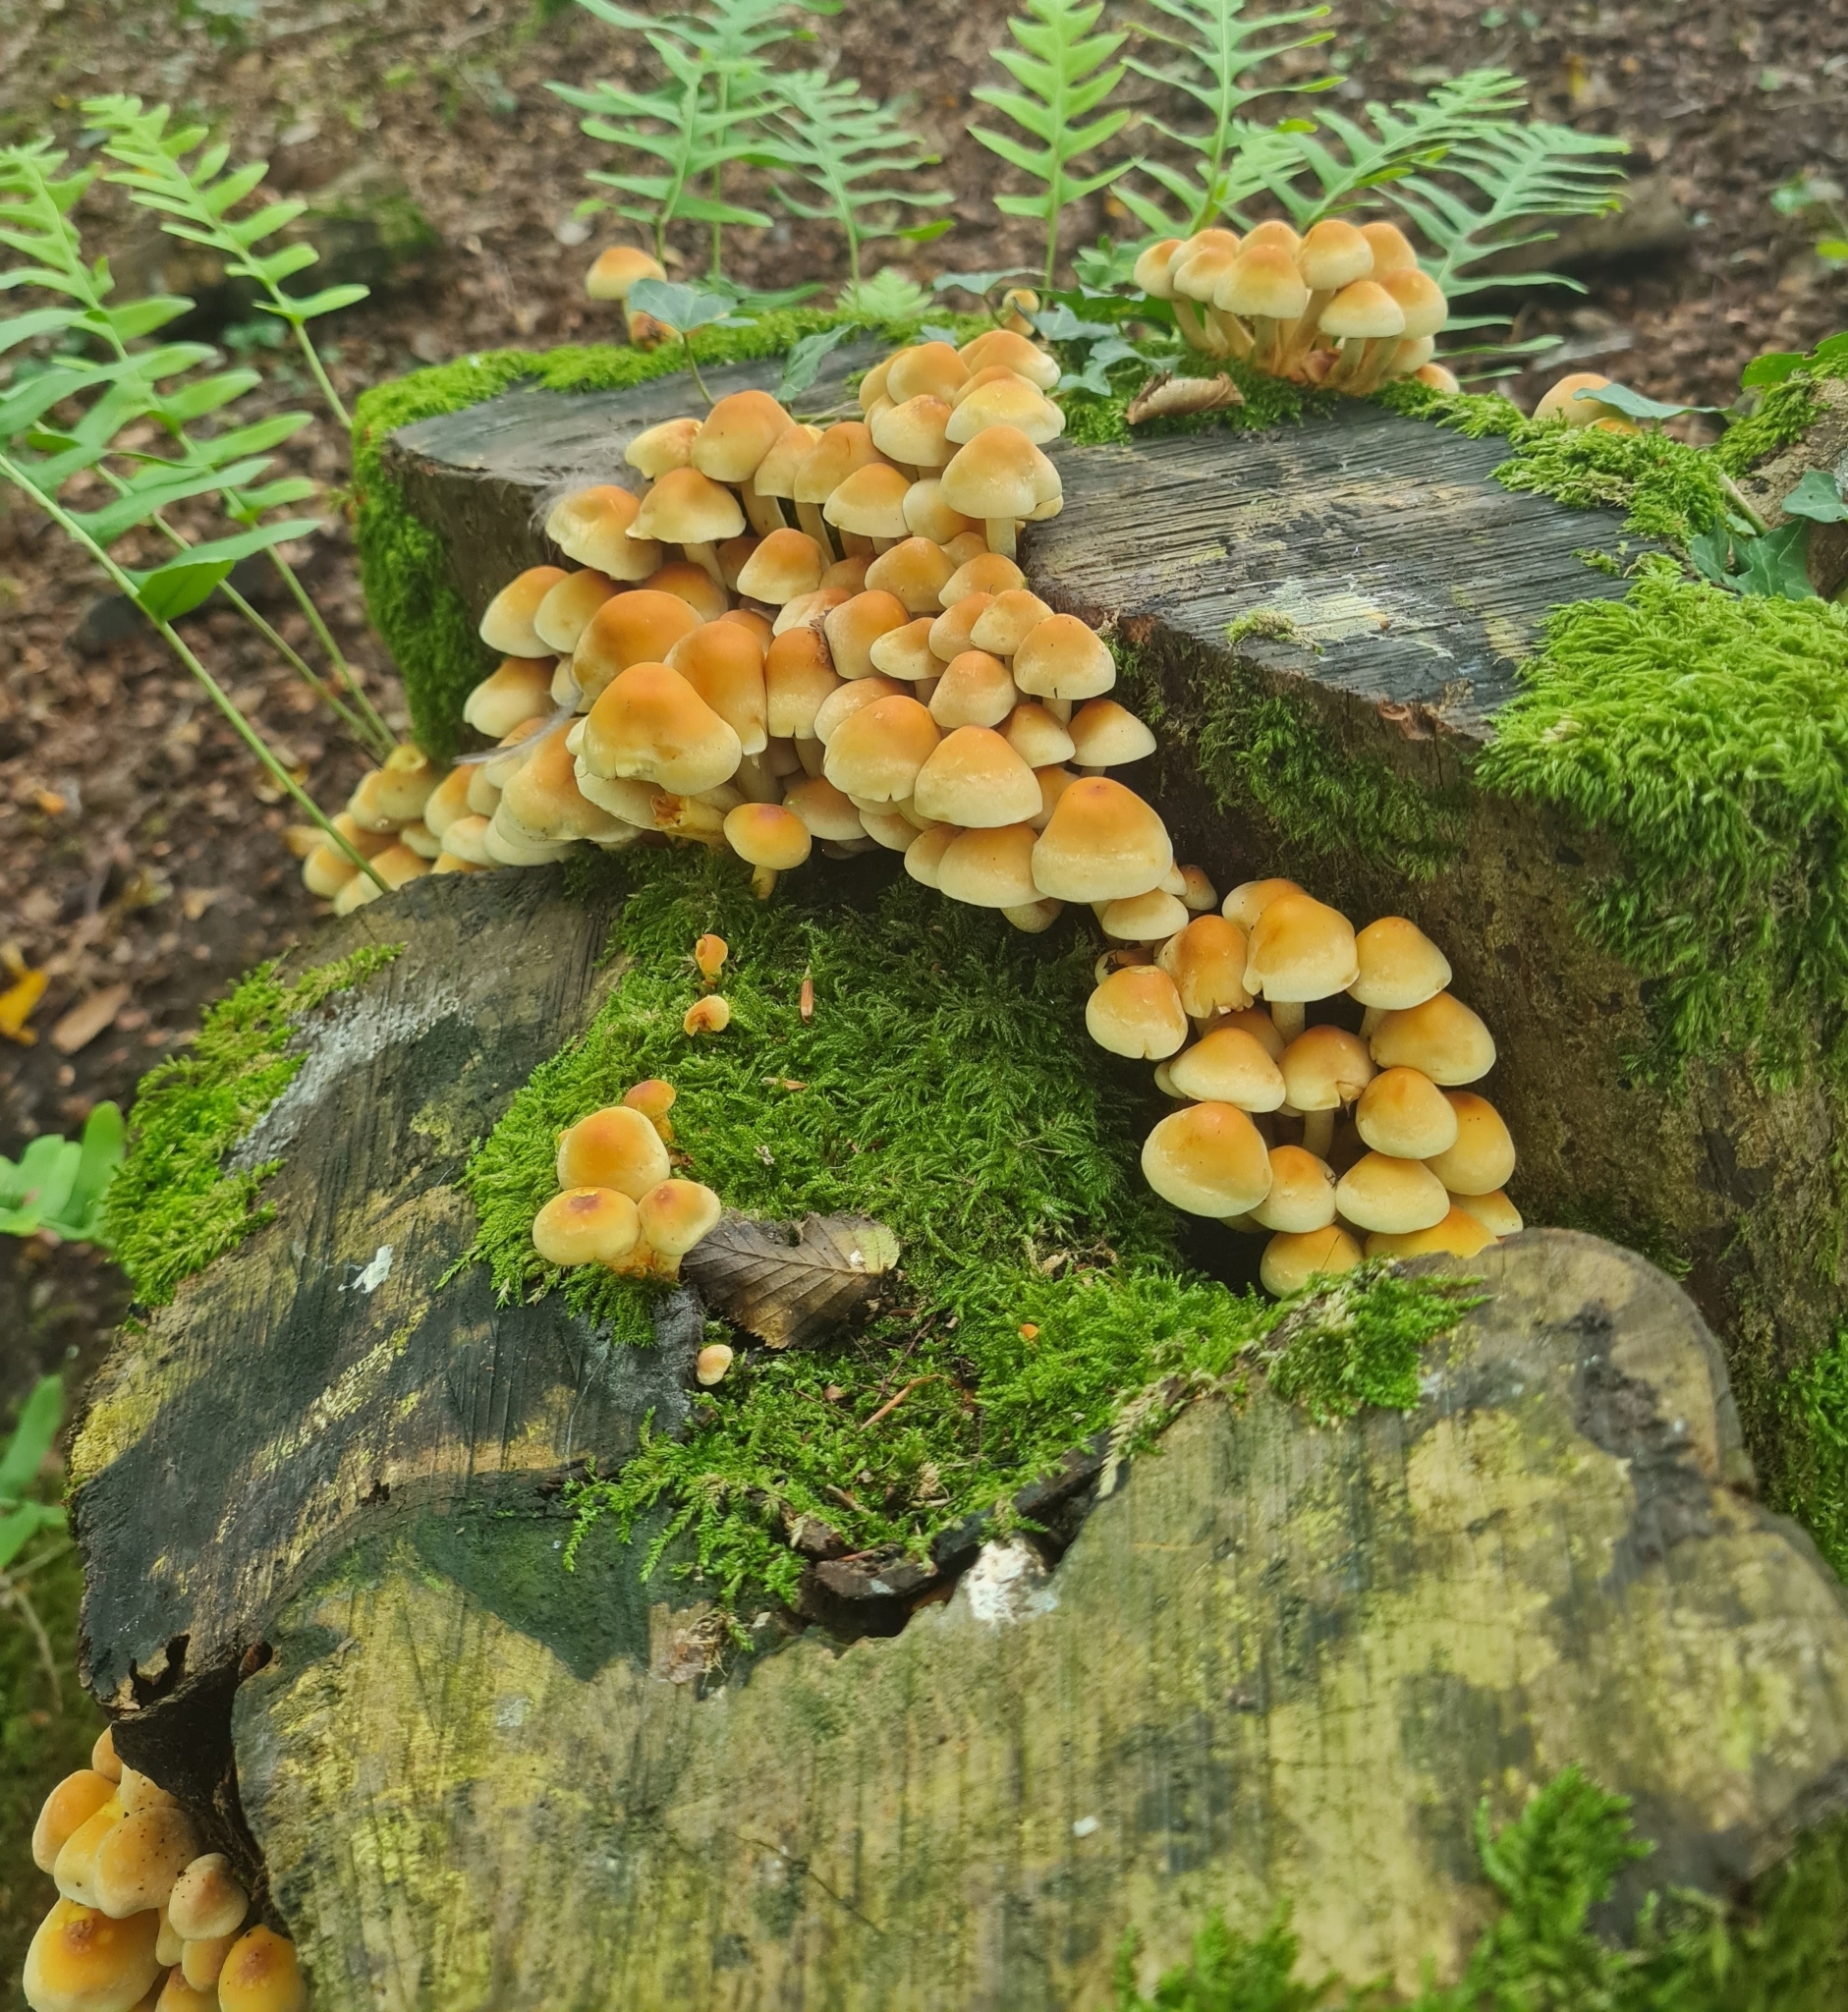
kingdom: Fungi
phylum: Basidiomycota
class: Agaricomycetes
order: Agaricales
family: Strophariaceae
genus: Hypholoma
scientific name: Hypholoma fasciculare
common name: Sulphur tuft
